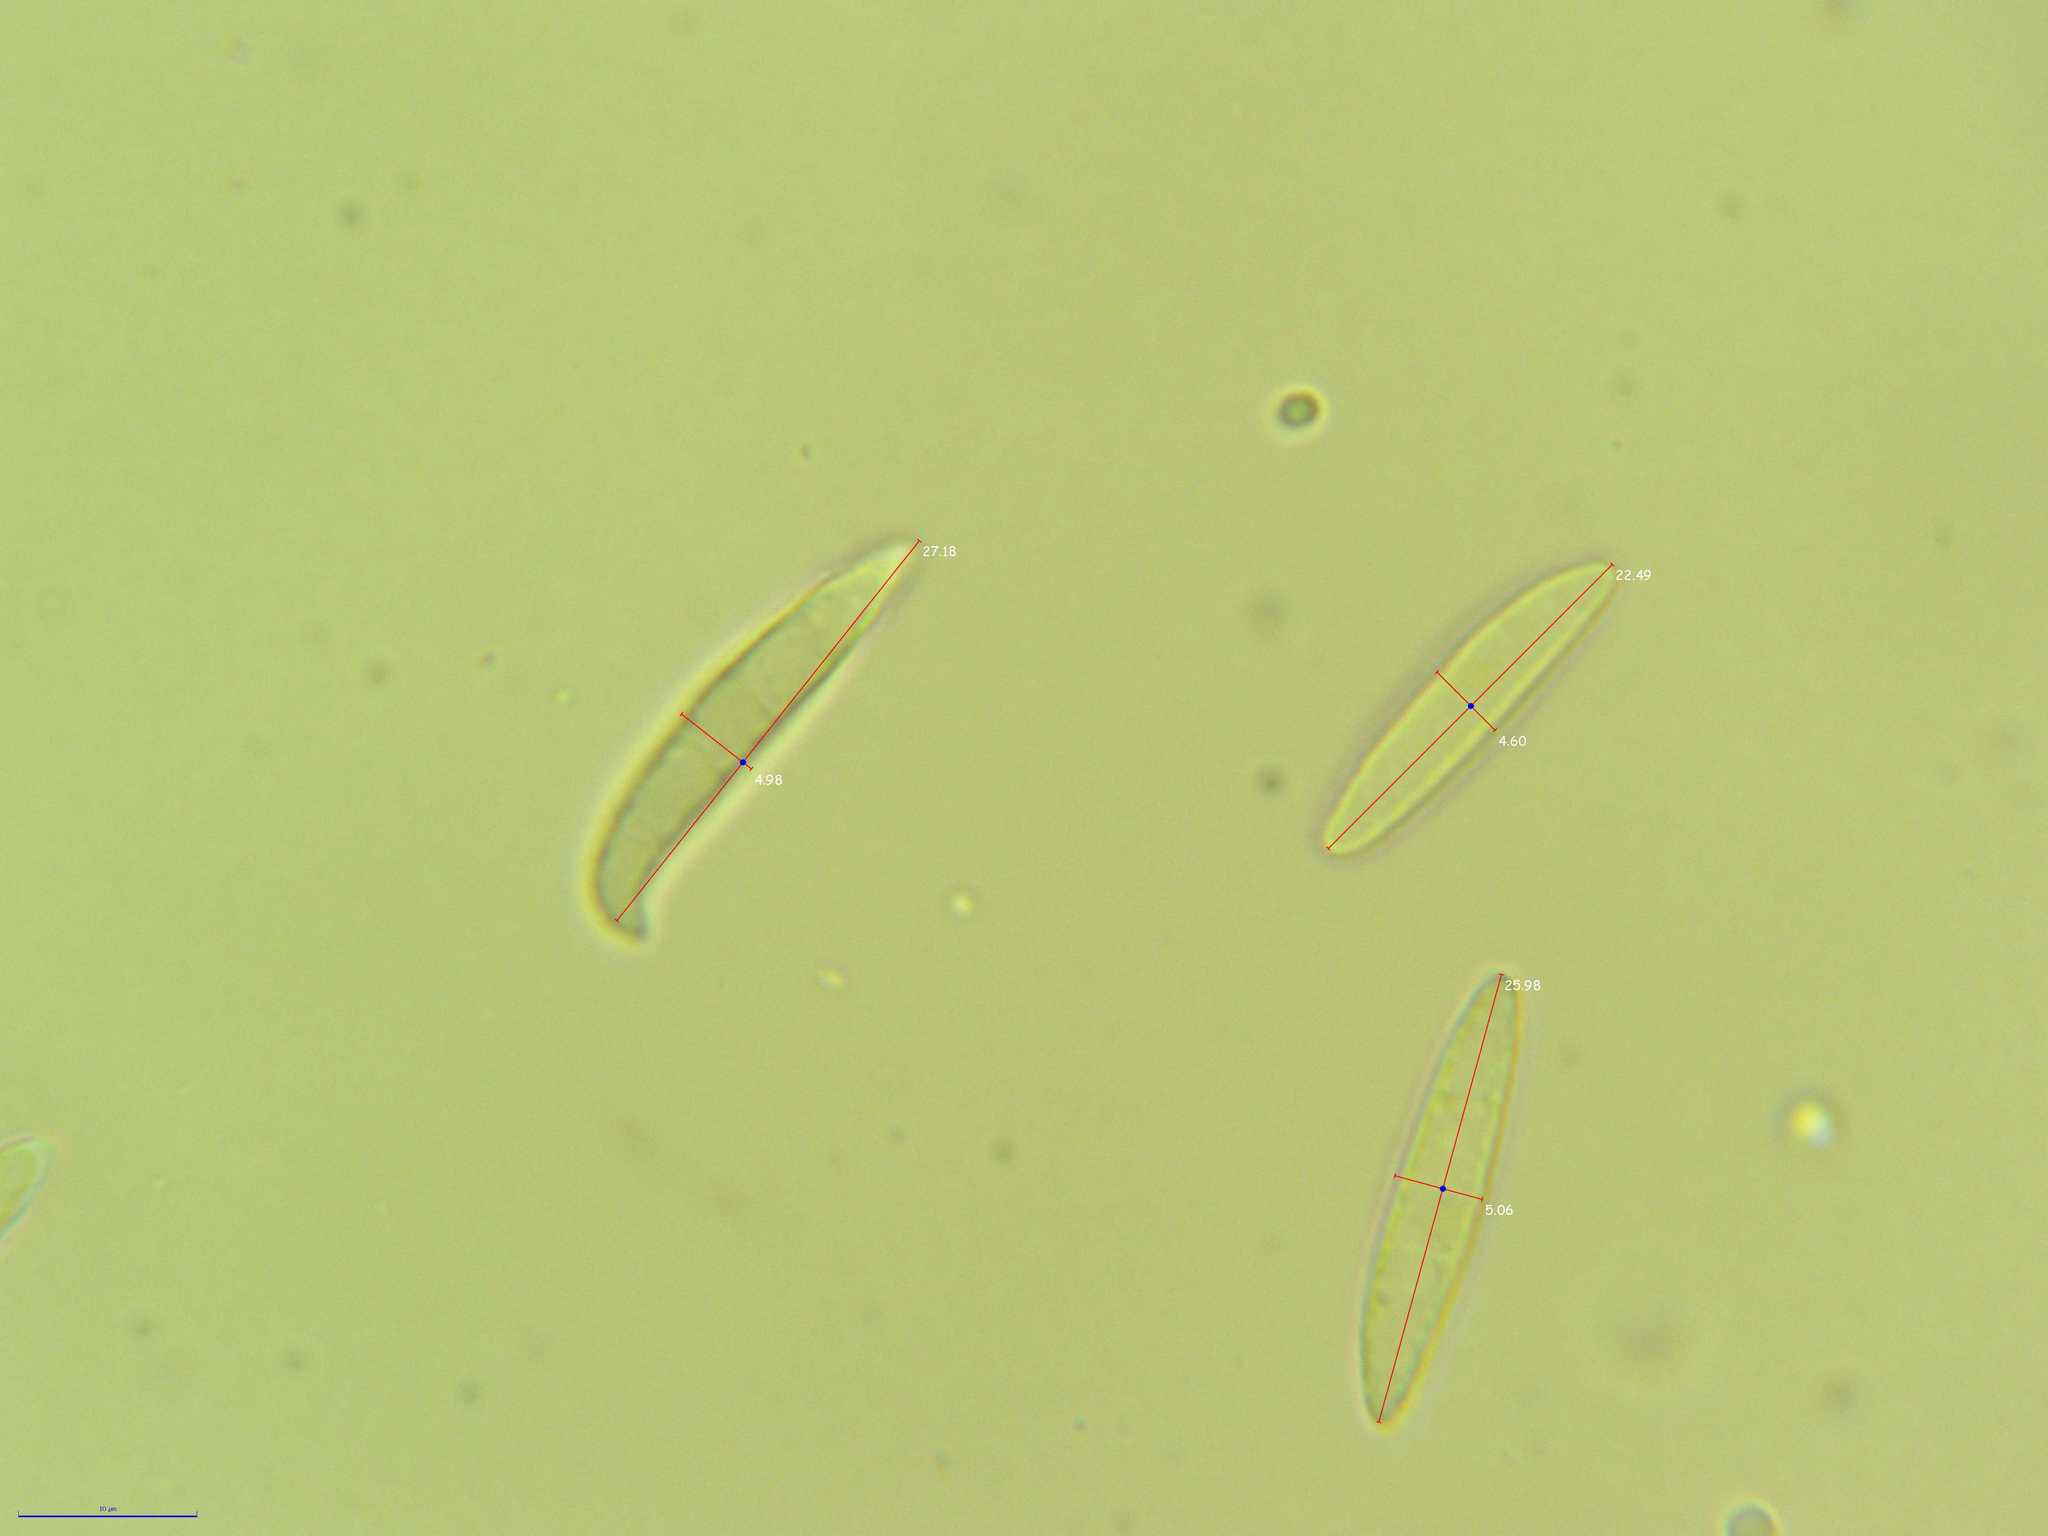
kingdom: Fungi
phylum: Ascomycota
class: Leotiomycetes
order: Helotiales
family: Gelatinodiscaceae
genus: Ascocoryne
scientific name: Ascocoryne cylichnium
